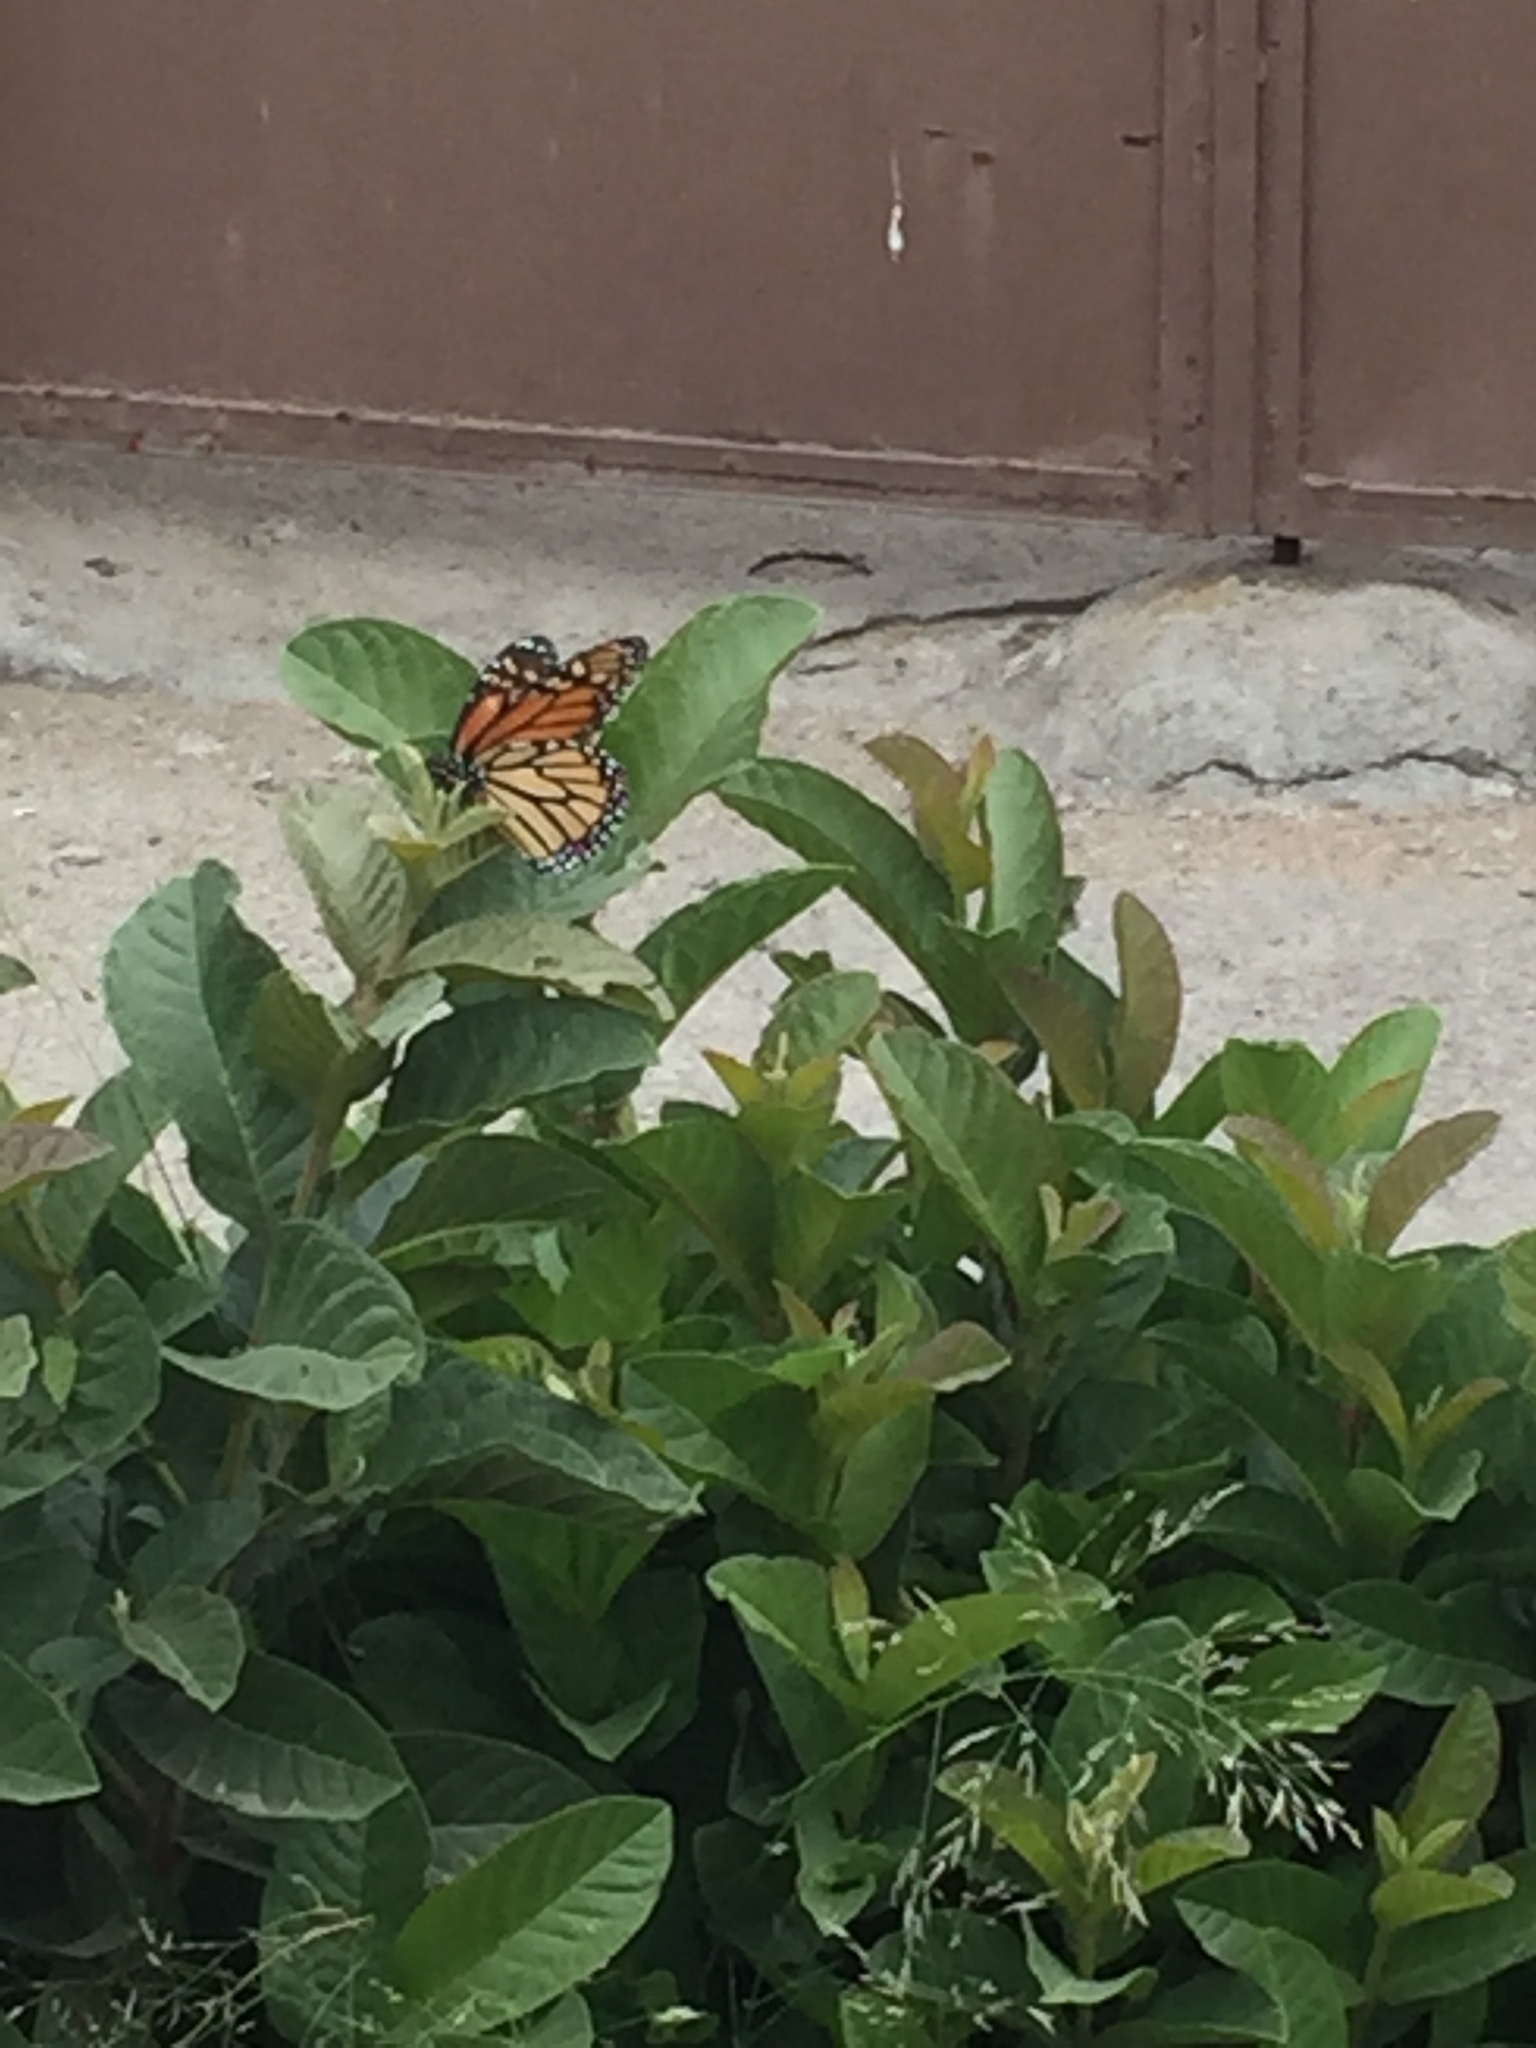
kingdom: Animalia
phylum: Arthropoda
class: Insecta
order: Lepidoptera
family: Nymphalidae
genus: Danaus
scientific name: Danaus plexippus
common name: Monarch
